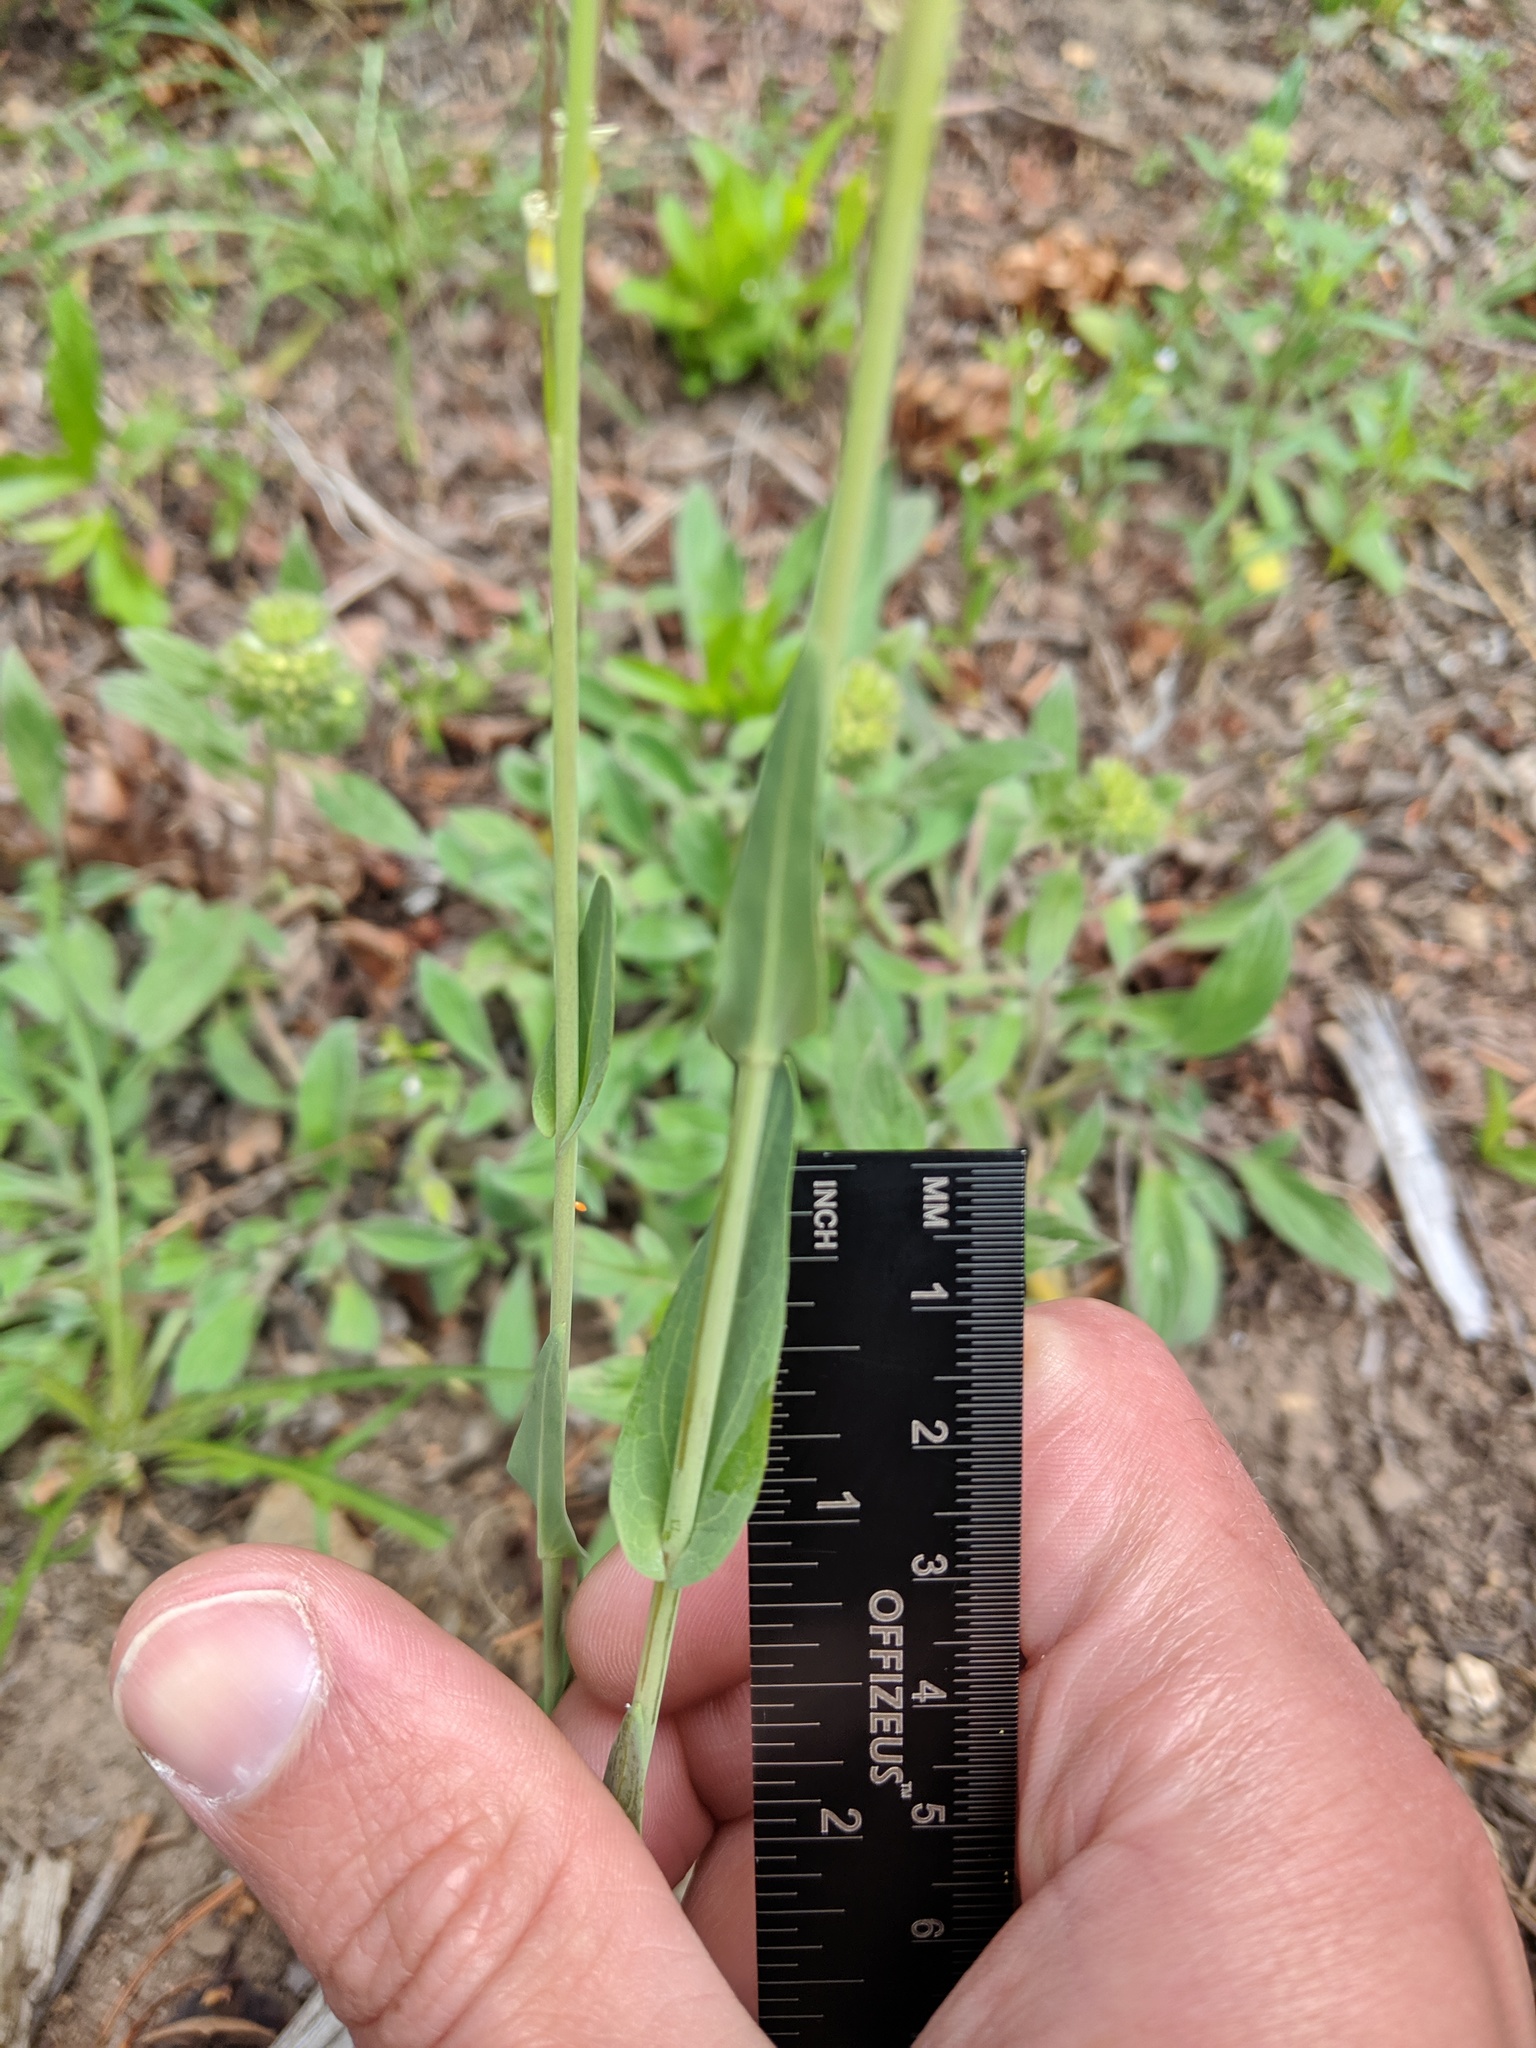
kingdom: Plantae
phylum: Tracheophyta
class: Magnoliopsida
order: Brassicales
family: Brassicaceae
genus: Turritis
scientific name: Turritis glabra
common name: Tower rockcress
